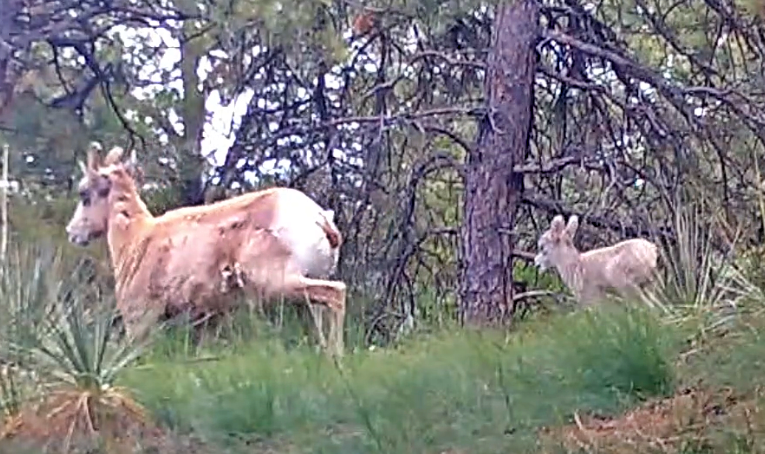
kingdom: Animalia
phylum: Chordata
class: Mammalia
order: Artiodactyla
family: Bovidae
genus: Ovis
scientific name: Ovis canadensis
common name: Bighorn sheep
